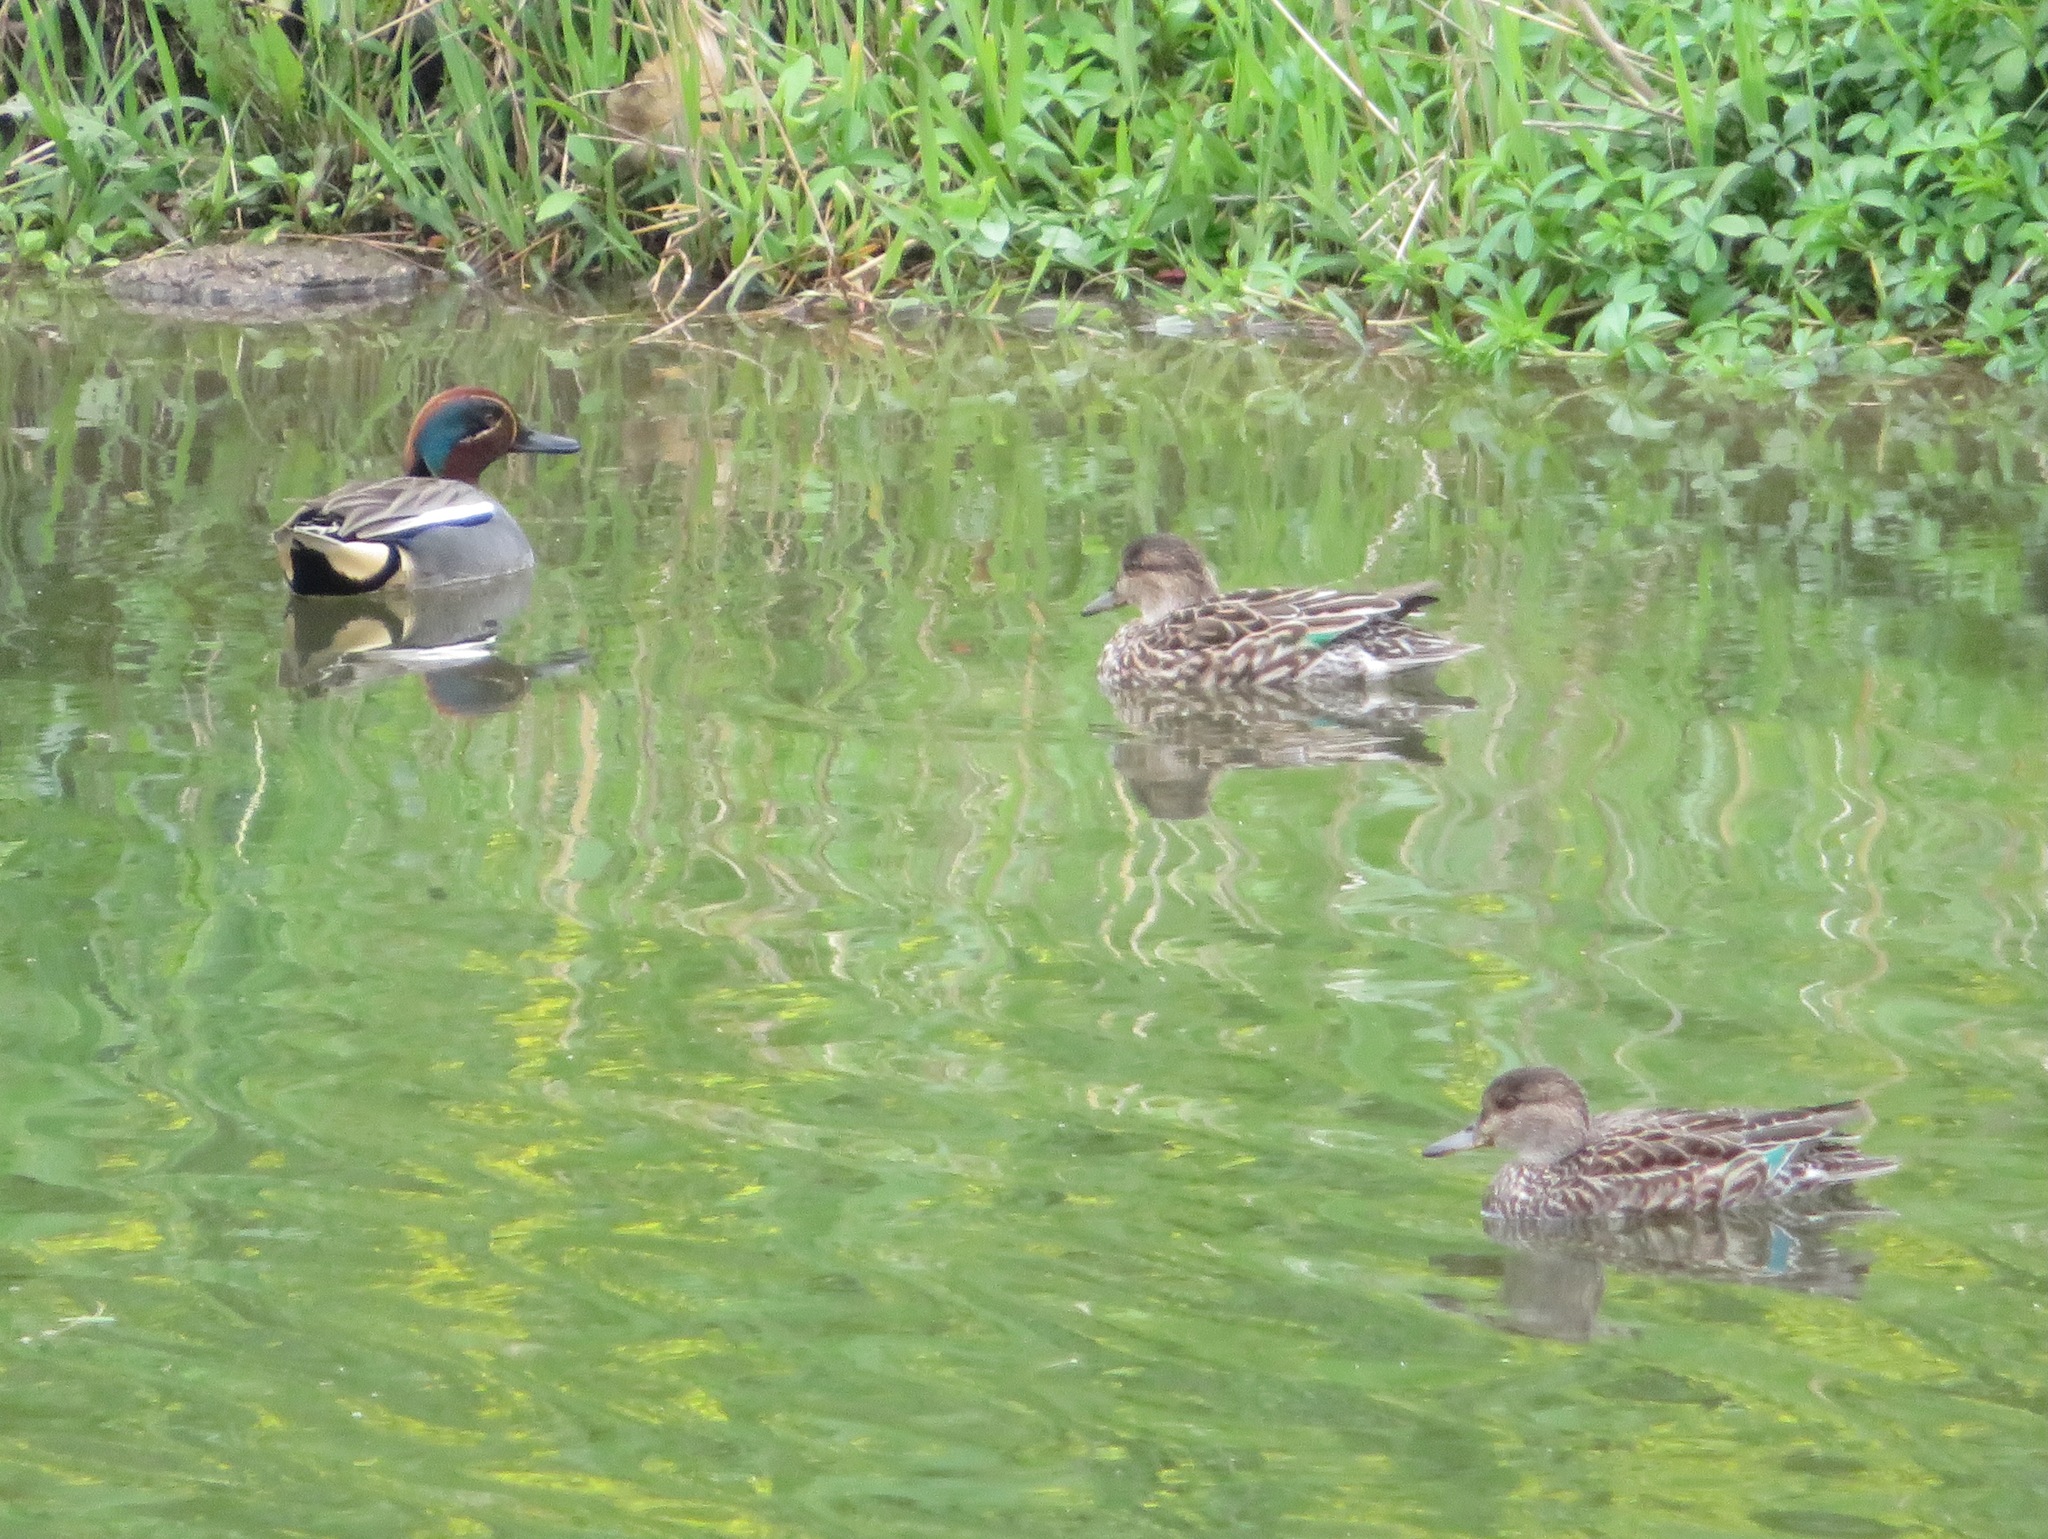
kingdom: Animalia
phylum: Chordata
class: Aves
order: Anseriformes
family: Anatidae
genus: Anas
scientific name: Anas crecca
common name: Eurasian teal
